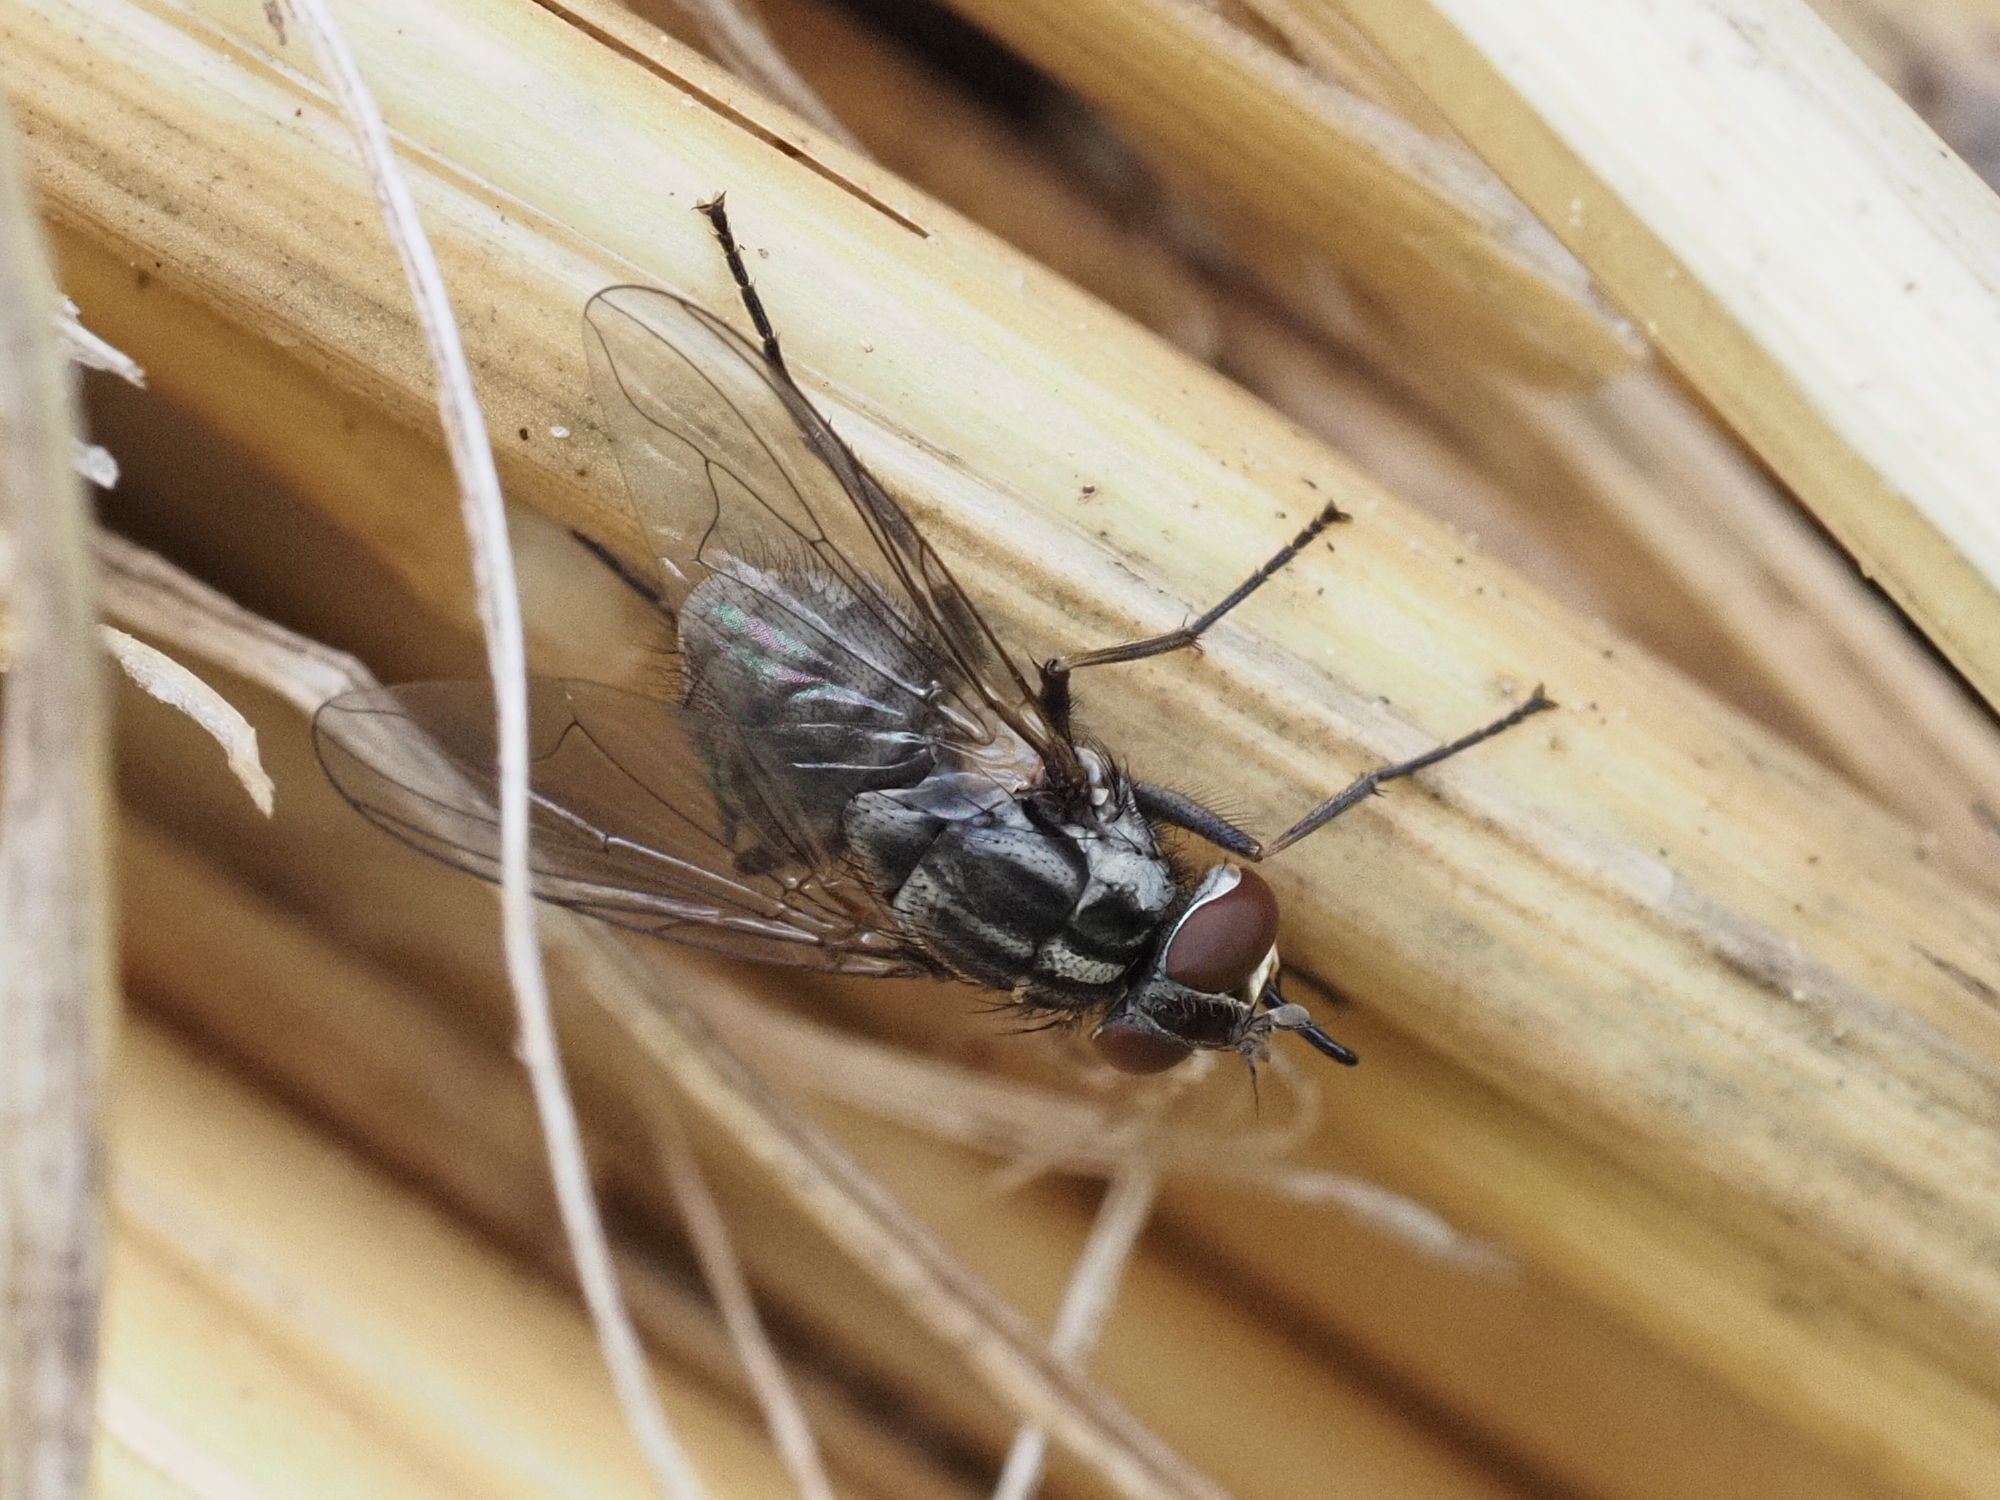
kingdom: Animalia
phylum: Arthropoda
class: Insecta
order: Diptera
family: Muscidae
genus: Stomoxys
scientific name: Stomoxys calcitrans
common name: Stable fly
